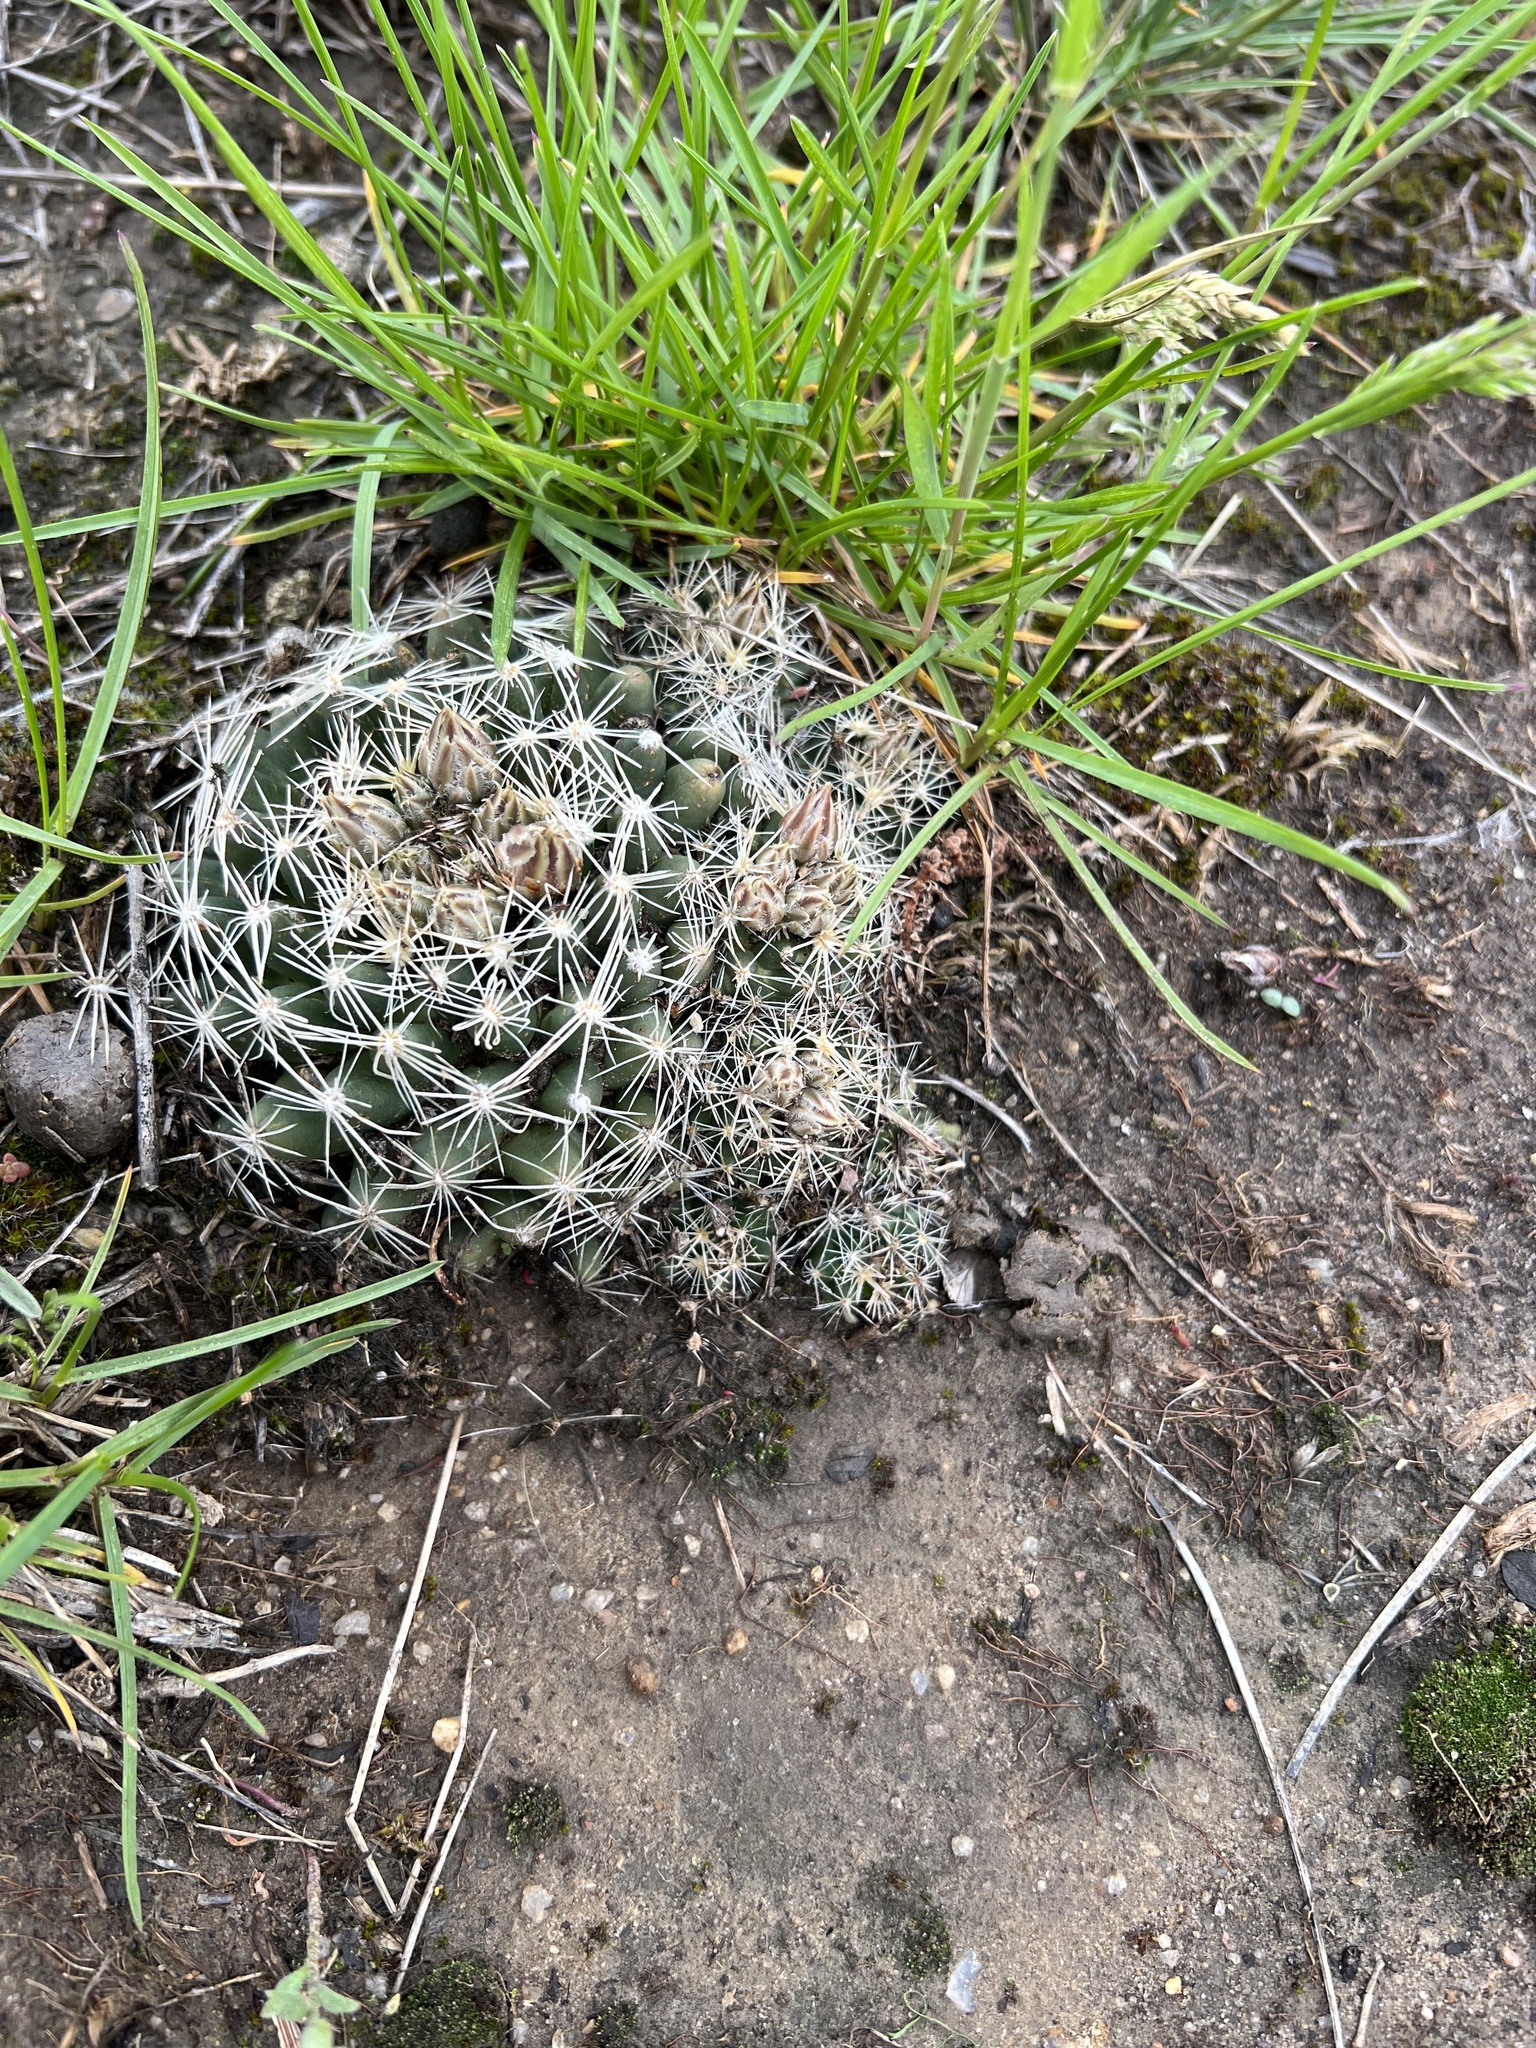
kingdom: Plantae
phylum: Tracheophyta
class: Magnoliopsida
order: Caryophyllales
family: Cactaceae
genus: Pelecyphora
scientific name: Pelecyphora missouriensis
